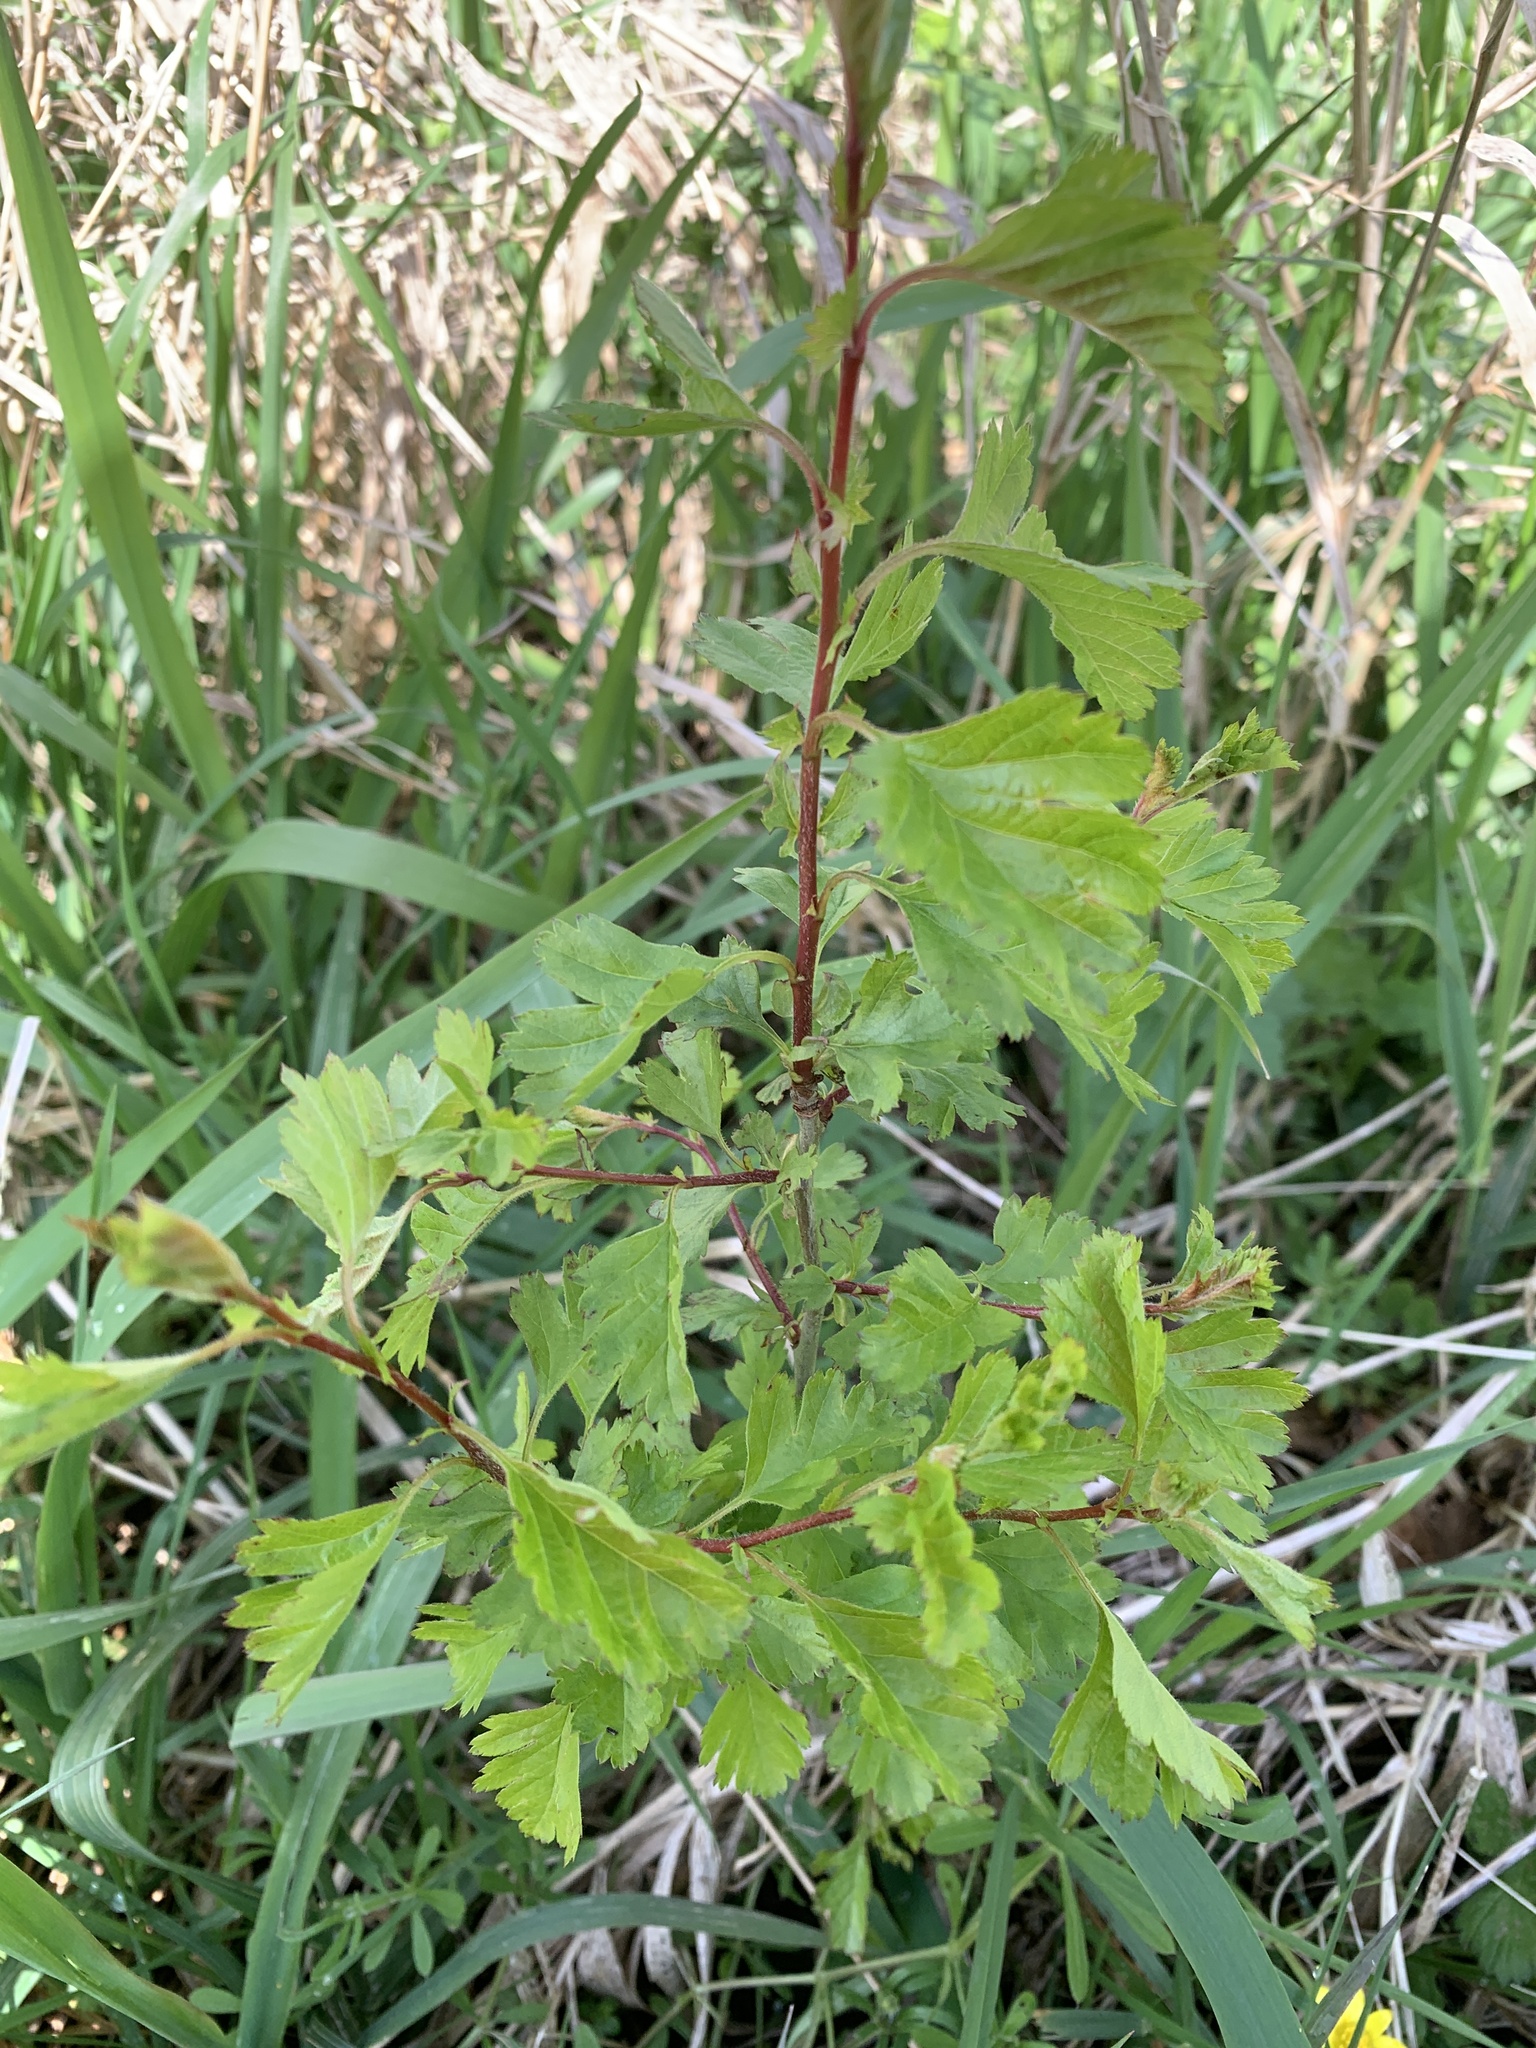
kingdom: Plantae
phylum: Tracheophyta
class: Magnoliopsida
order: Rosales
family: Rosaceae
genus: Crataegus
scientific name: Crataegus monogyna
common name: Hawthorn
